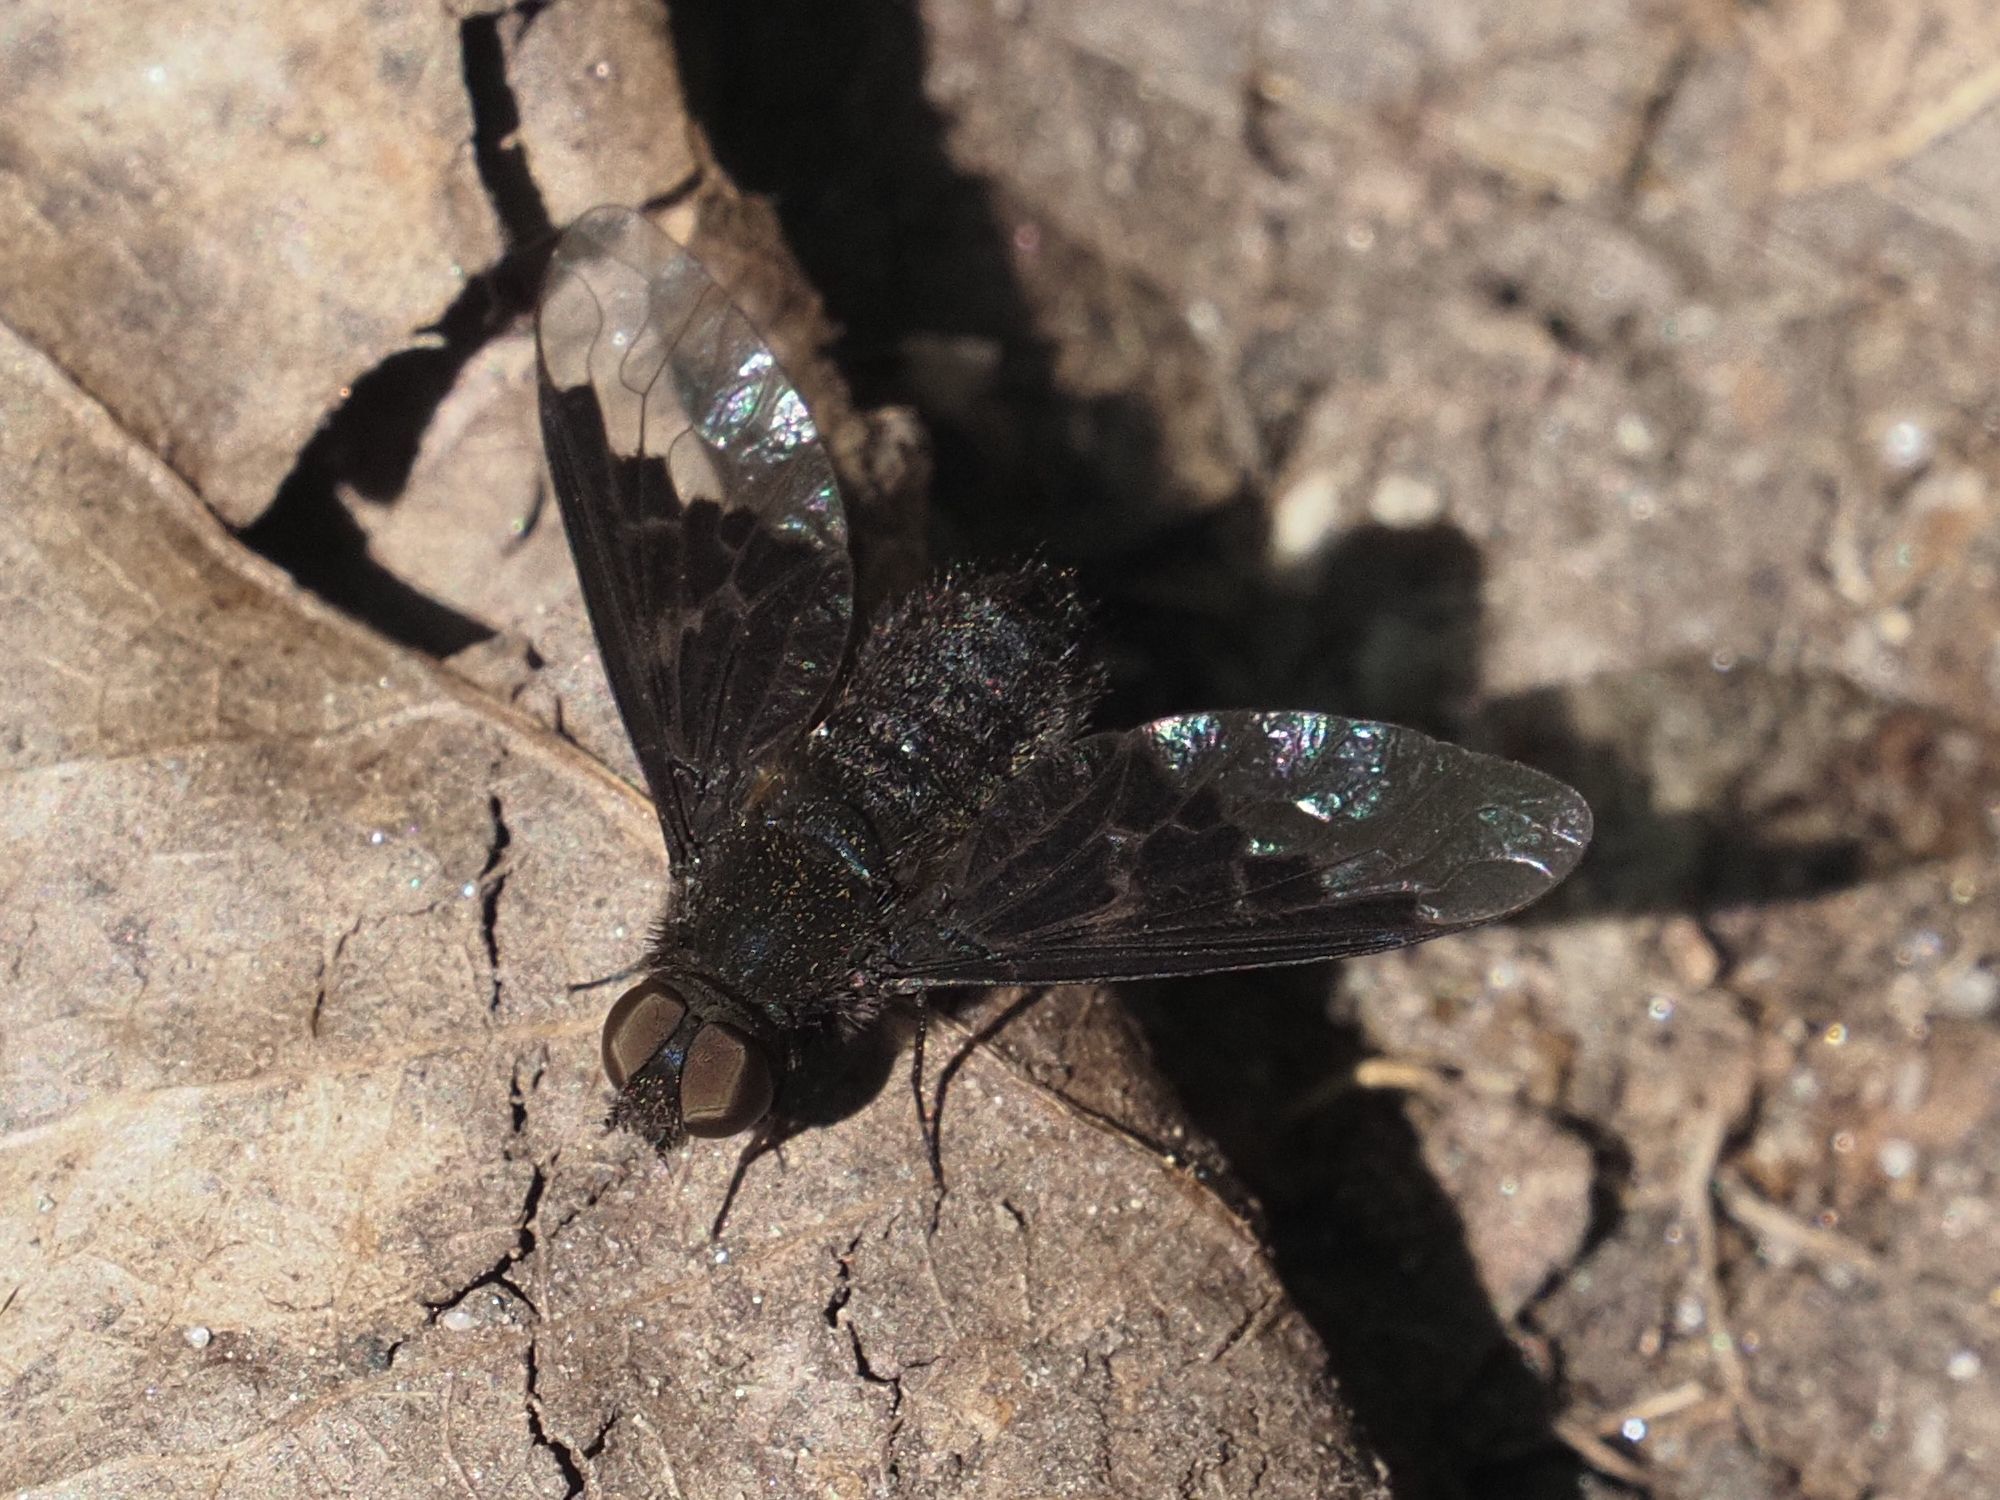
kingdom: Animalia
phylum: Arthropoda
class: Insecta
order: Diptera
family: Bombyliidae
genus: Hemipenthes
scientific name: Hemipenthes morio
